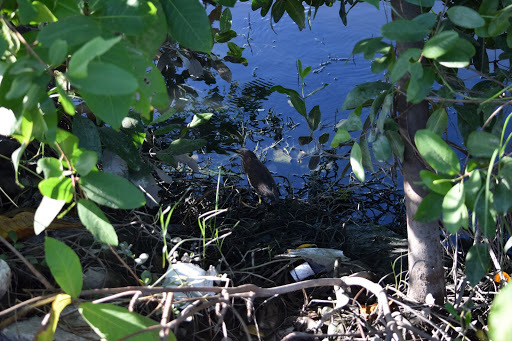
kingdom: Animalia
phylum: Chordata
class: Aves
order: Pelecaniformes
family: Ardeidae
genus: Butorides
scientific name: Butorides virescens
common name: Green heron
